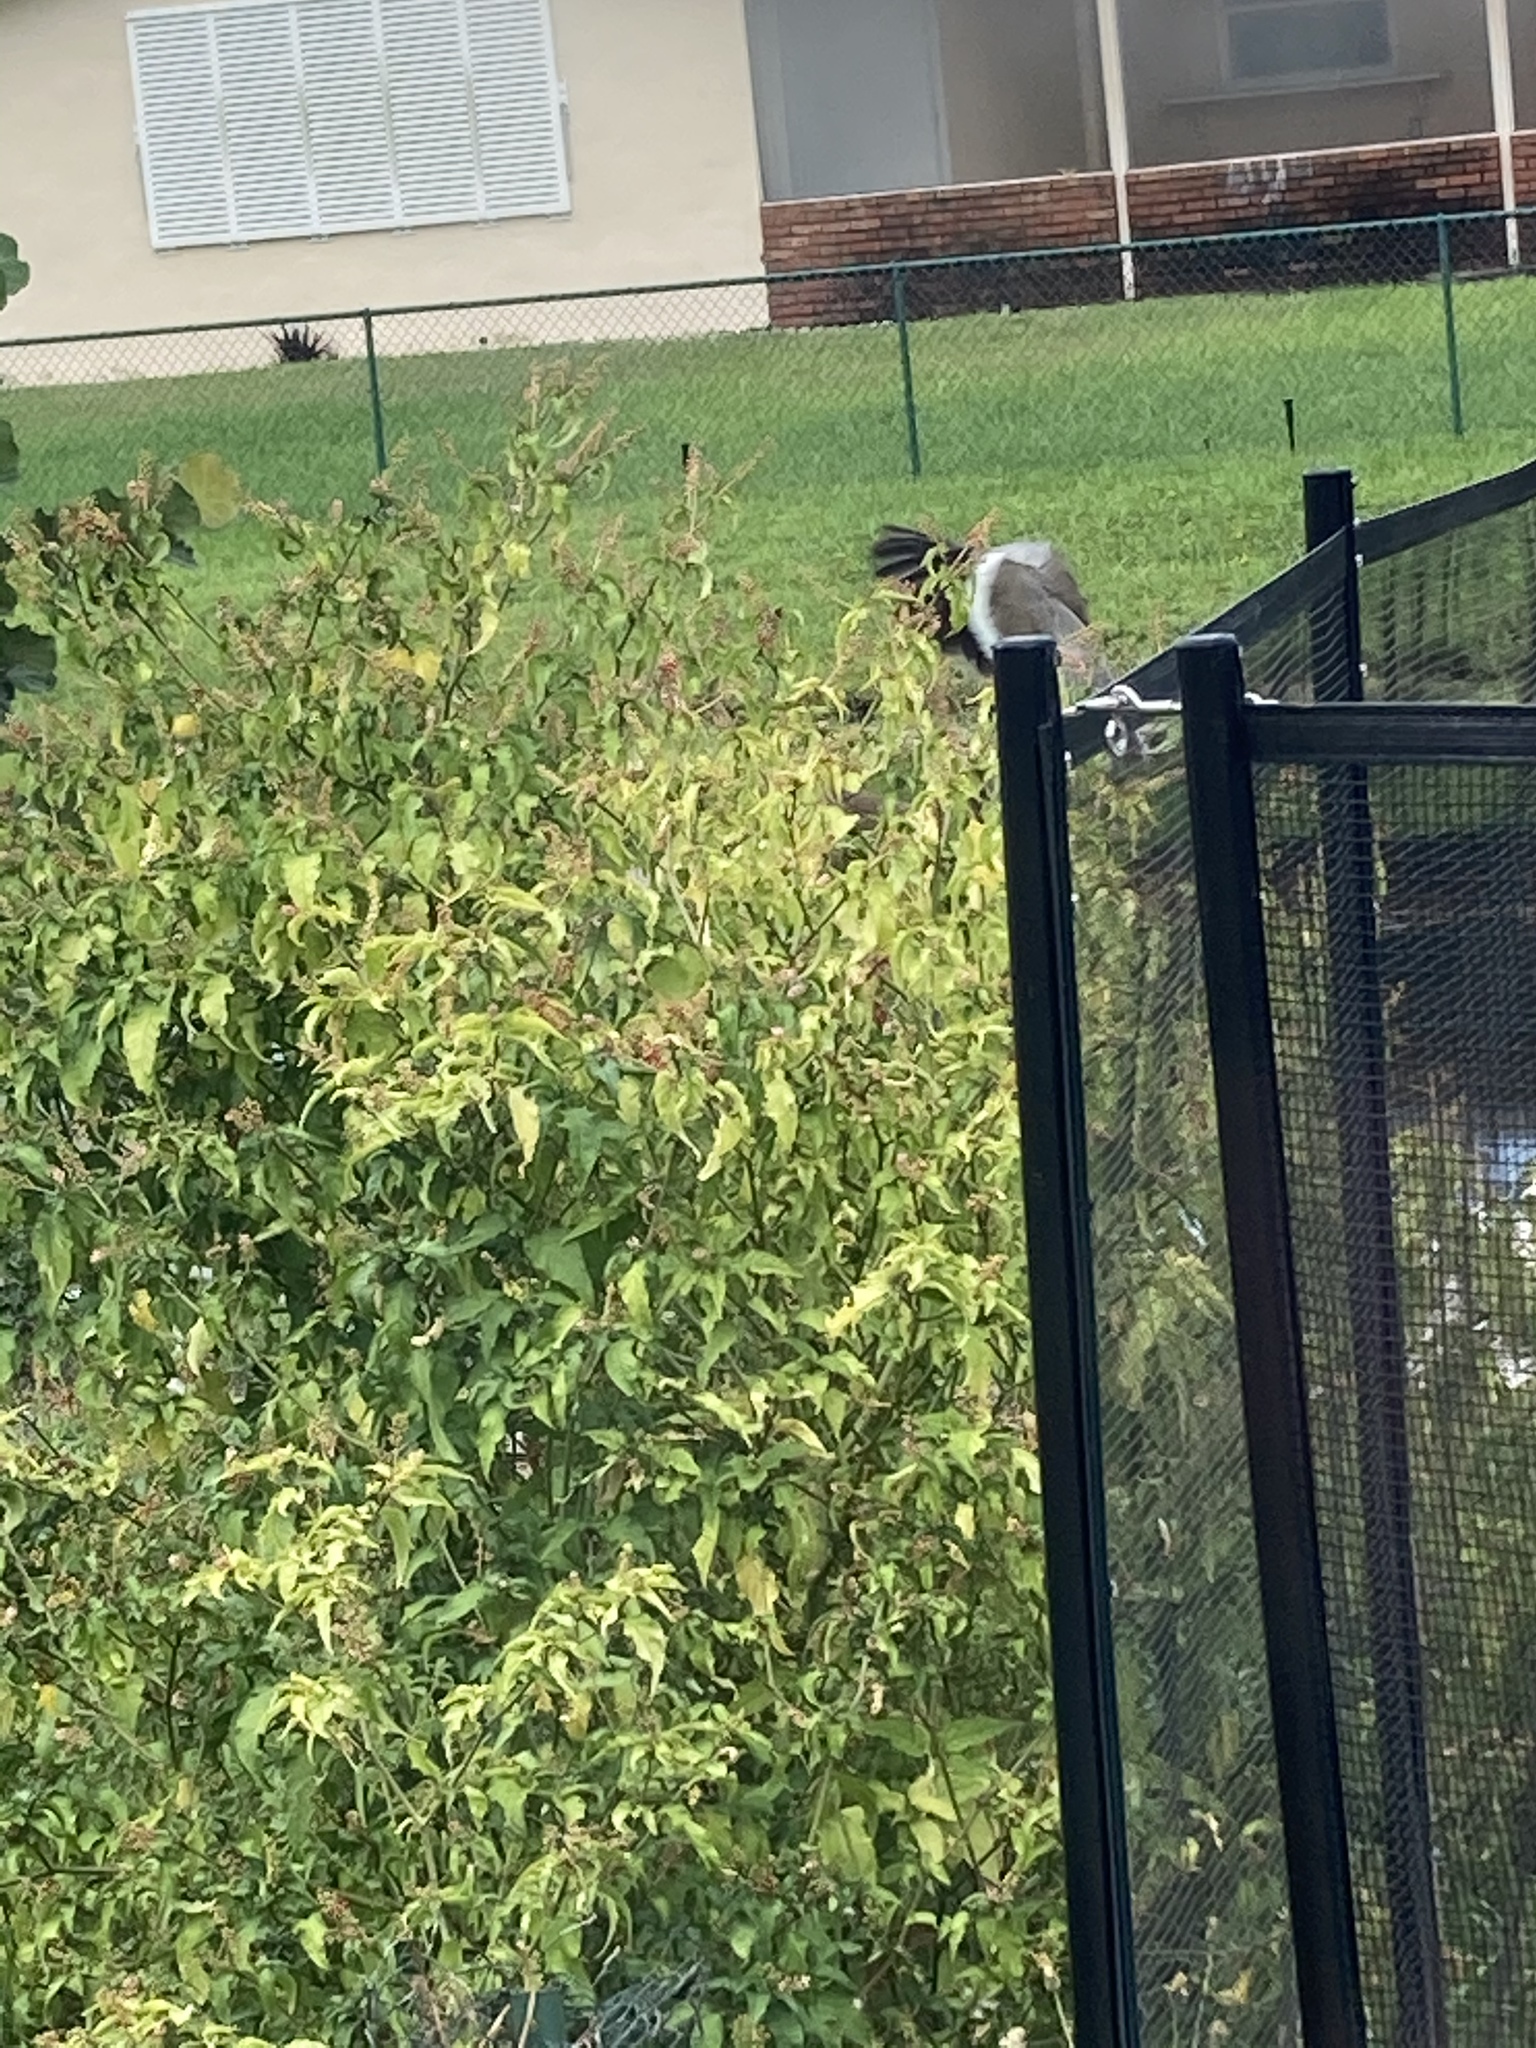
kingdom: Animalia
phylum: Chordata
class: Aves
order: Columbiformes
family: Columbidae
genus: Zenaida
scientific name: Zenaida asiatica
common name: White-winged dove
